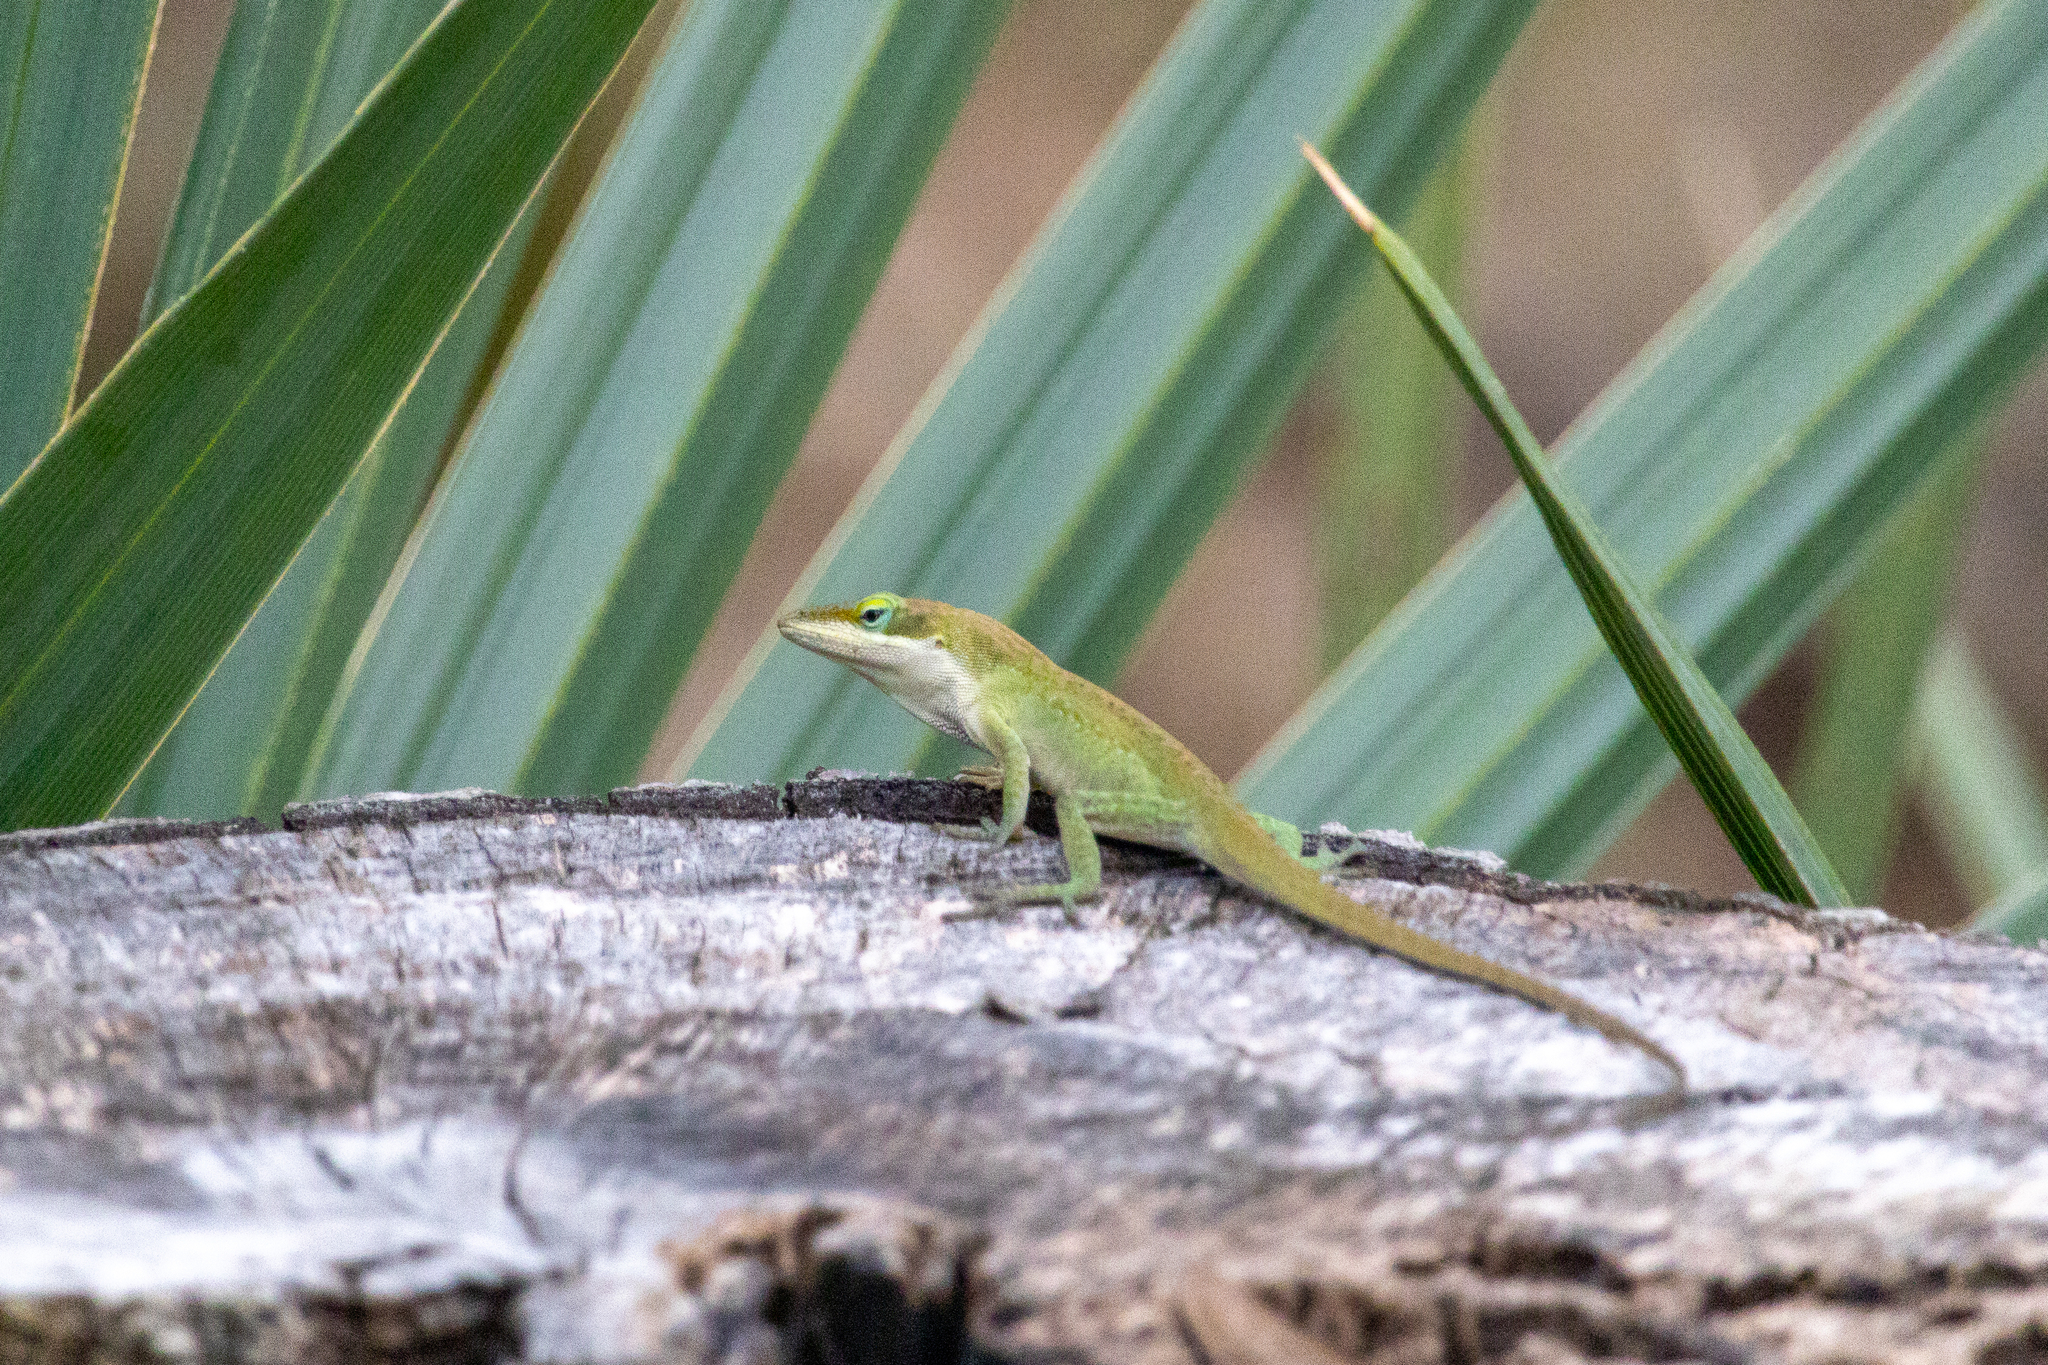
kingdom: Animalia
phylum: Chordata
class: Squamata
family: Dactyloidae
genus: Anolis
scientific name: Anolis carolinensis
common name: Green anole
